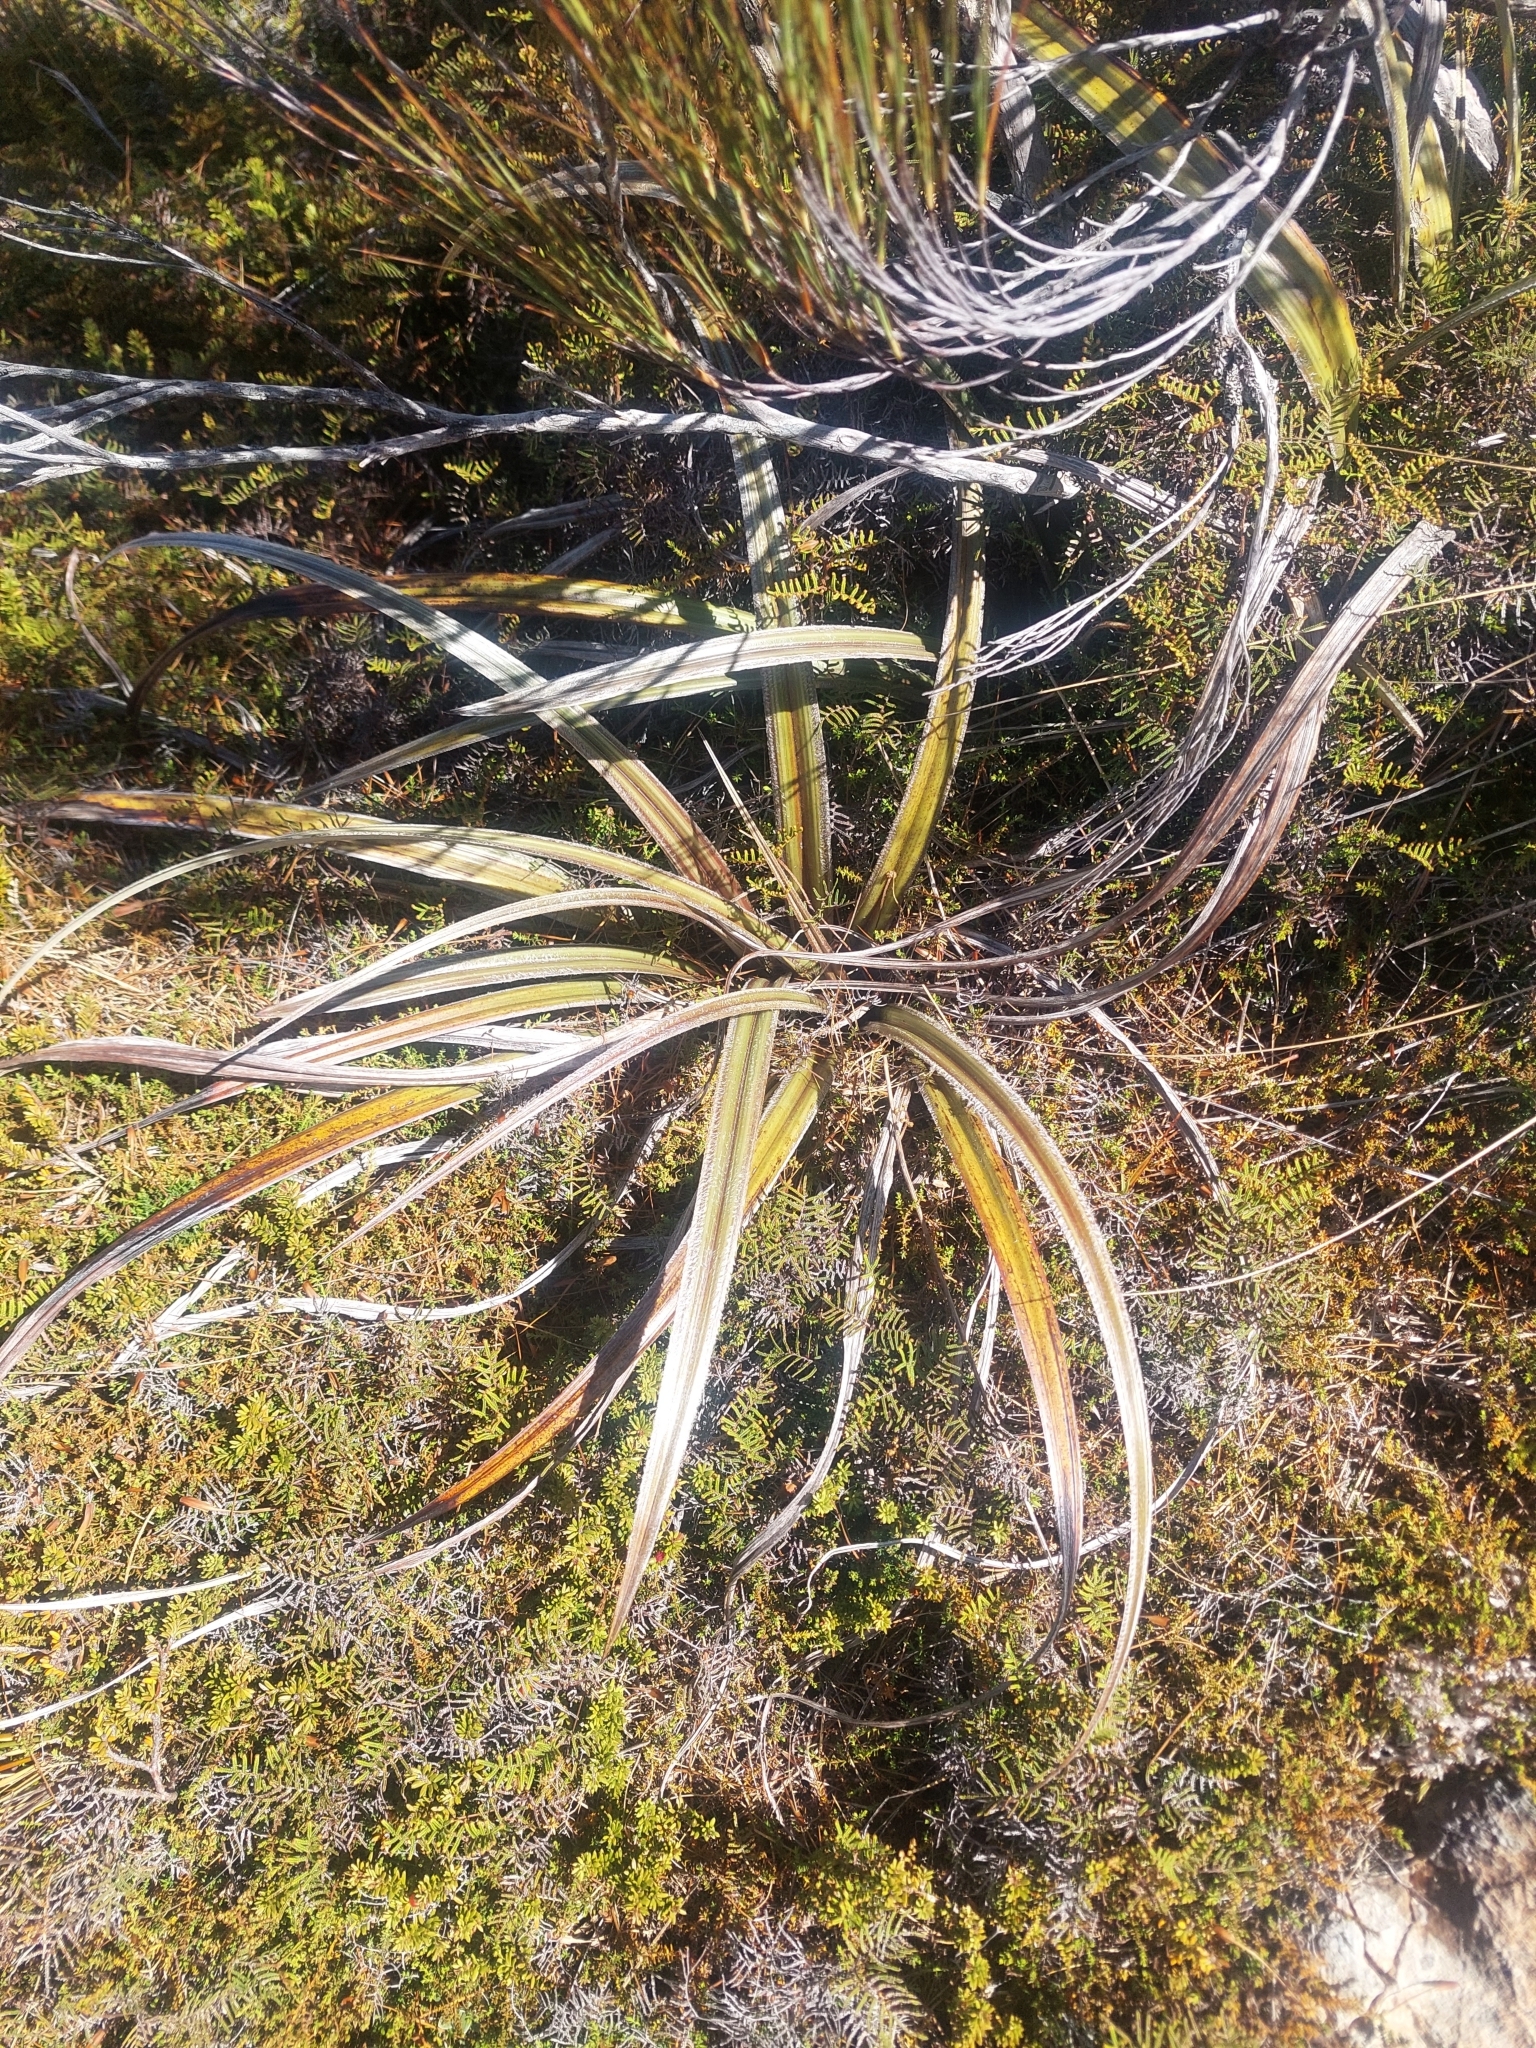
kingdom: Plantae
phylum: Tracheophyta
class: Liliopsida
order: Asparagales
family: Asteliaceae
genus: Astelia
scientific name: Astelia nervosa
